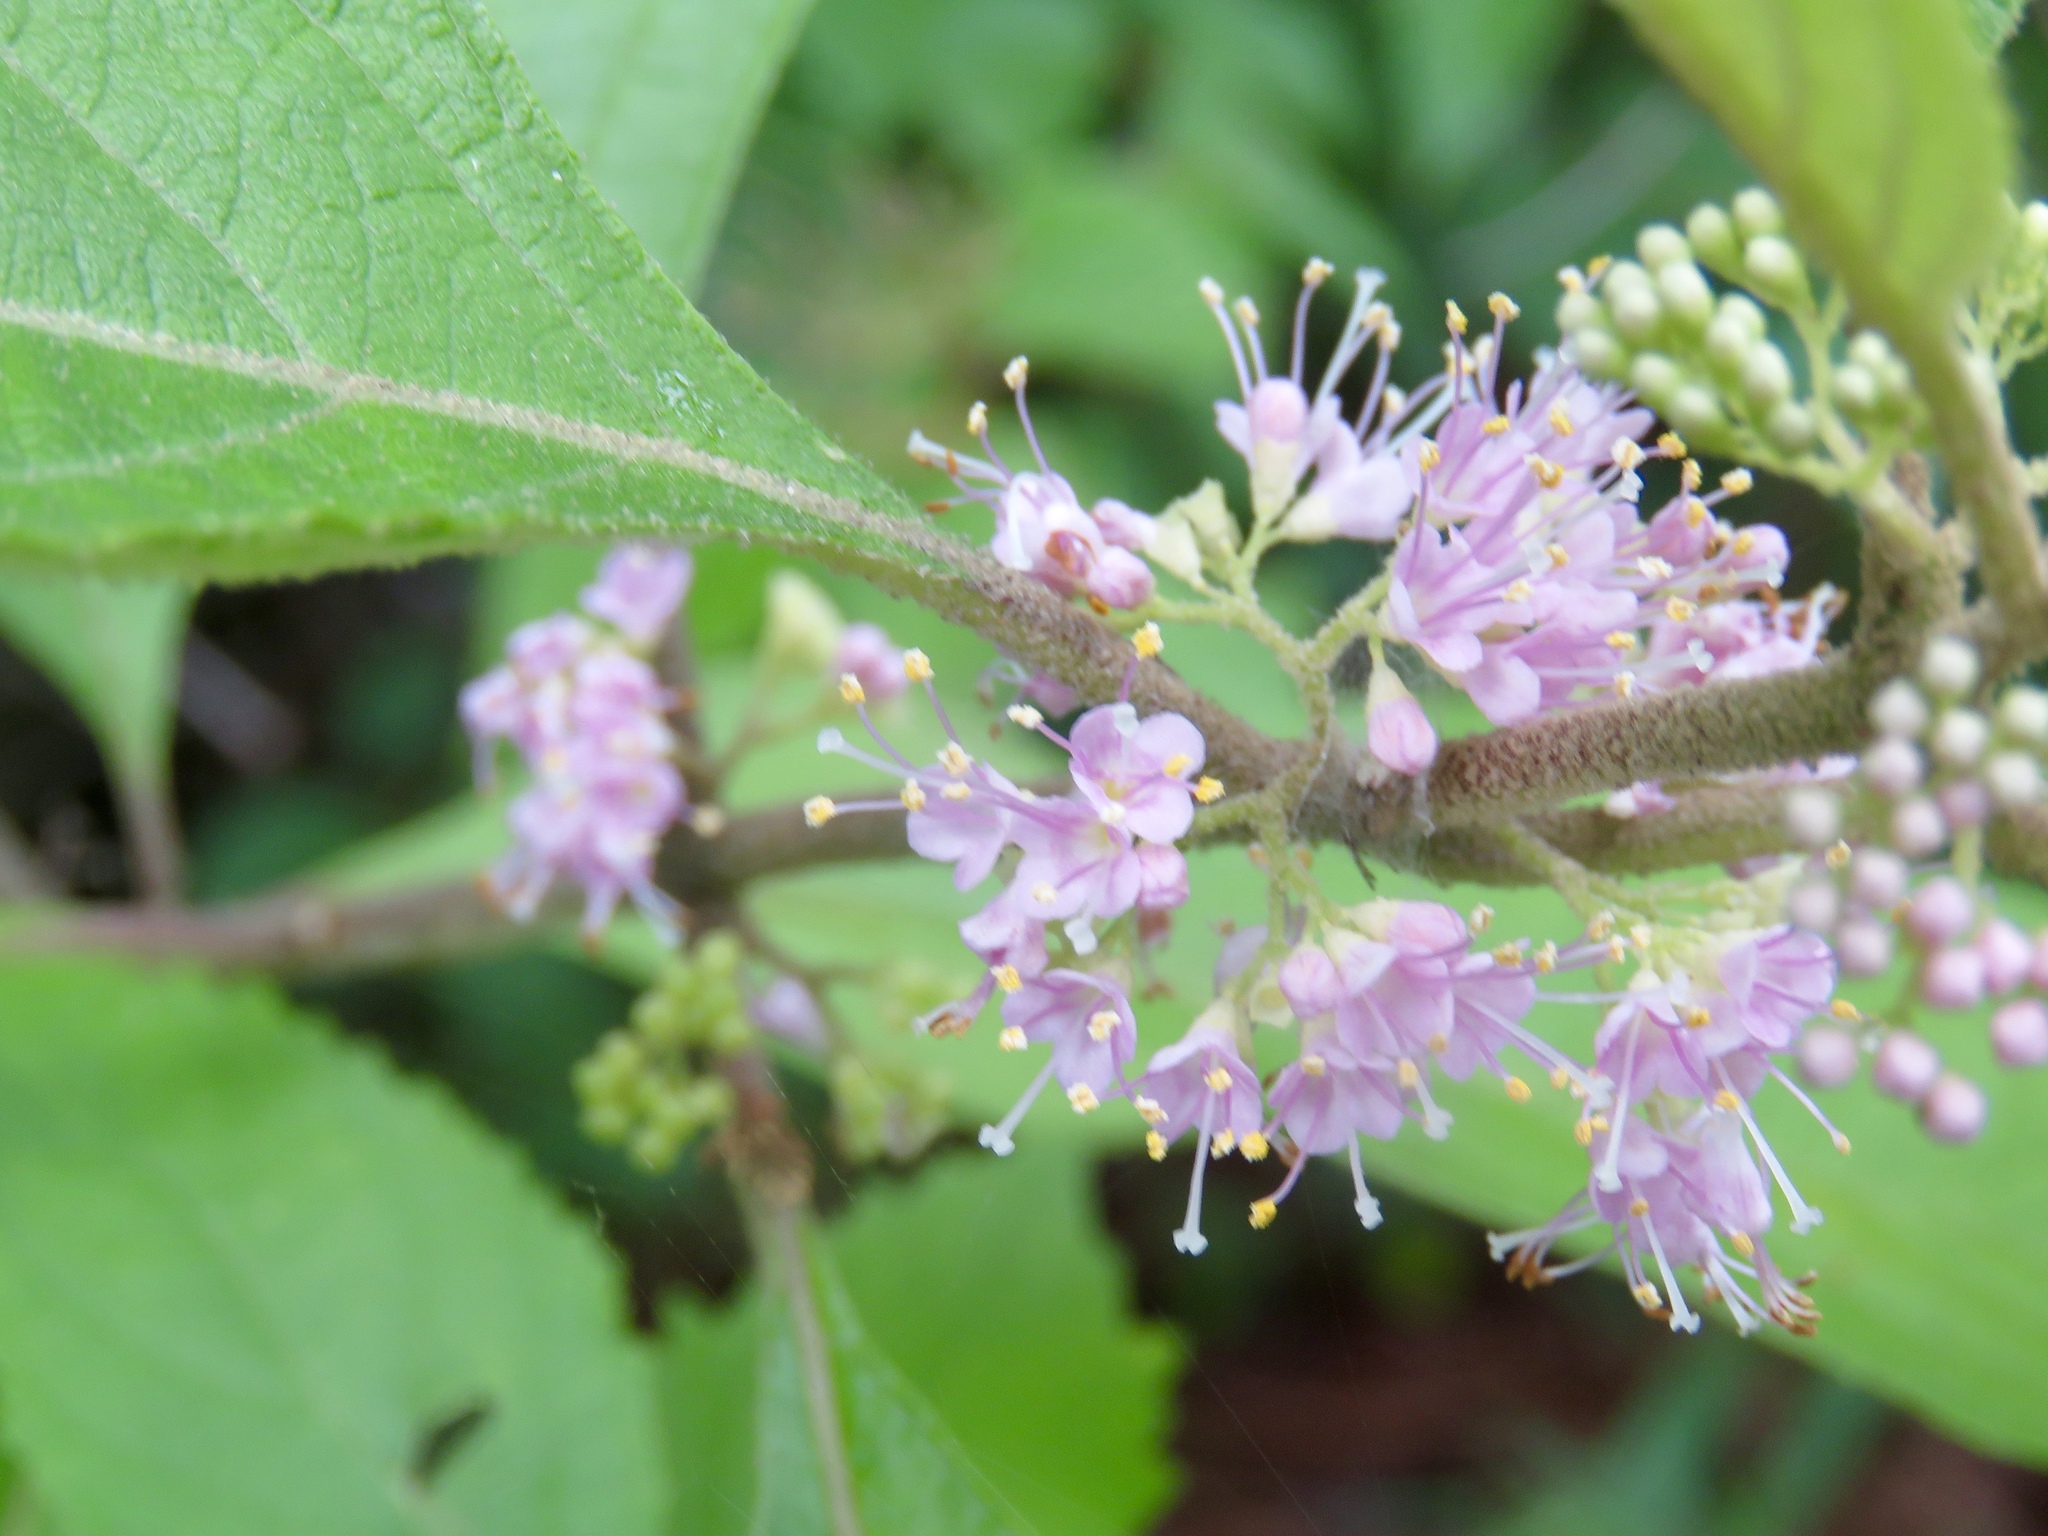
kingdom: Plantae
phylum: Tracheophyta
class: Magnoliopsida
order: Lamiales
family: Lamiaceae
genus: Callicarpa
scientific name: Callicarpa americana
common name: American beautyberry
